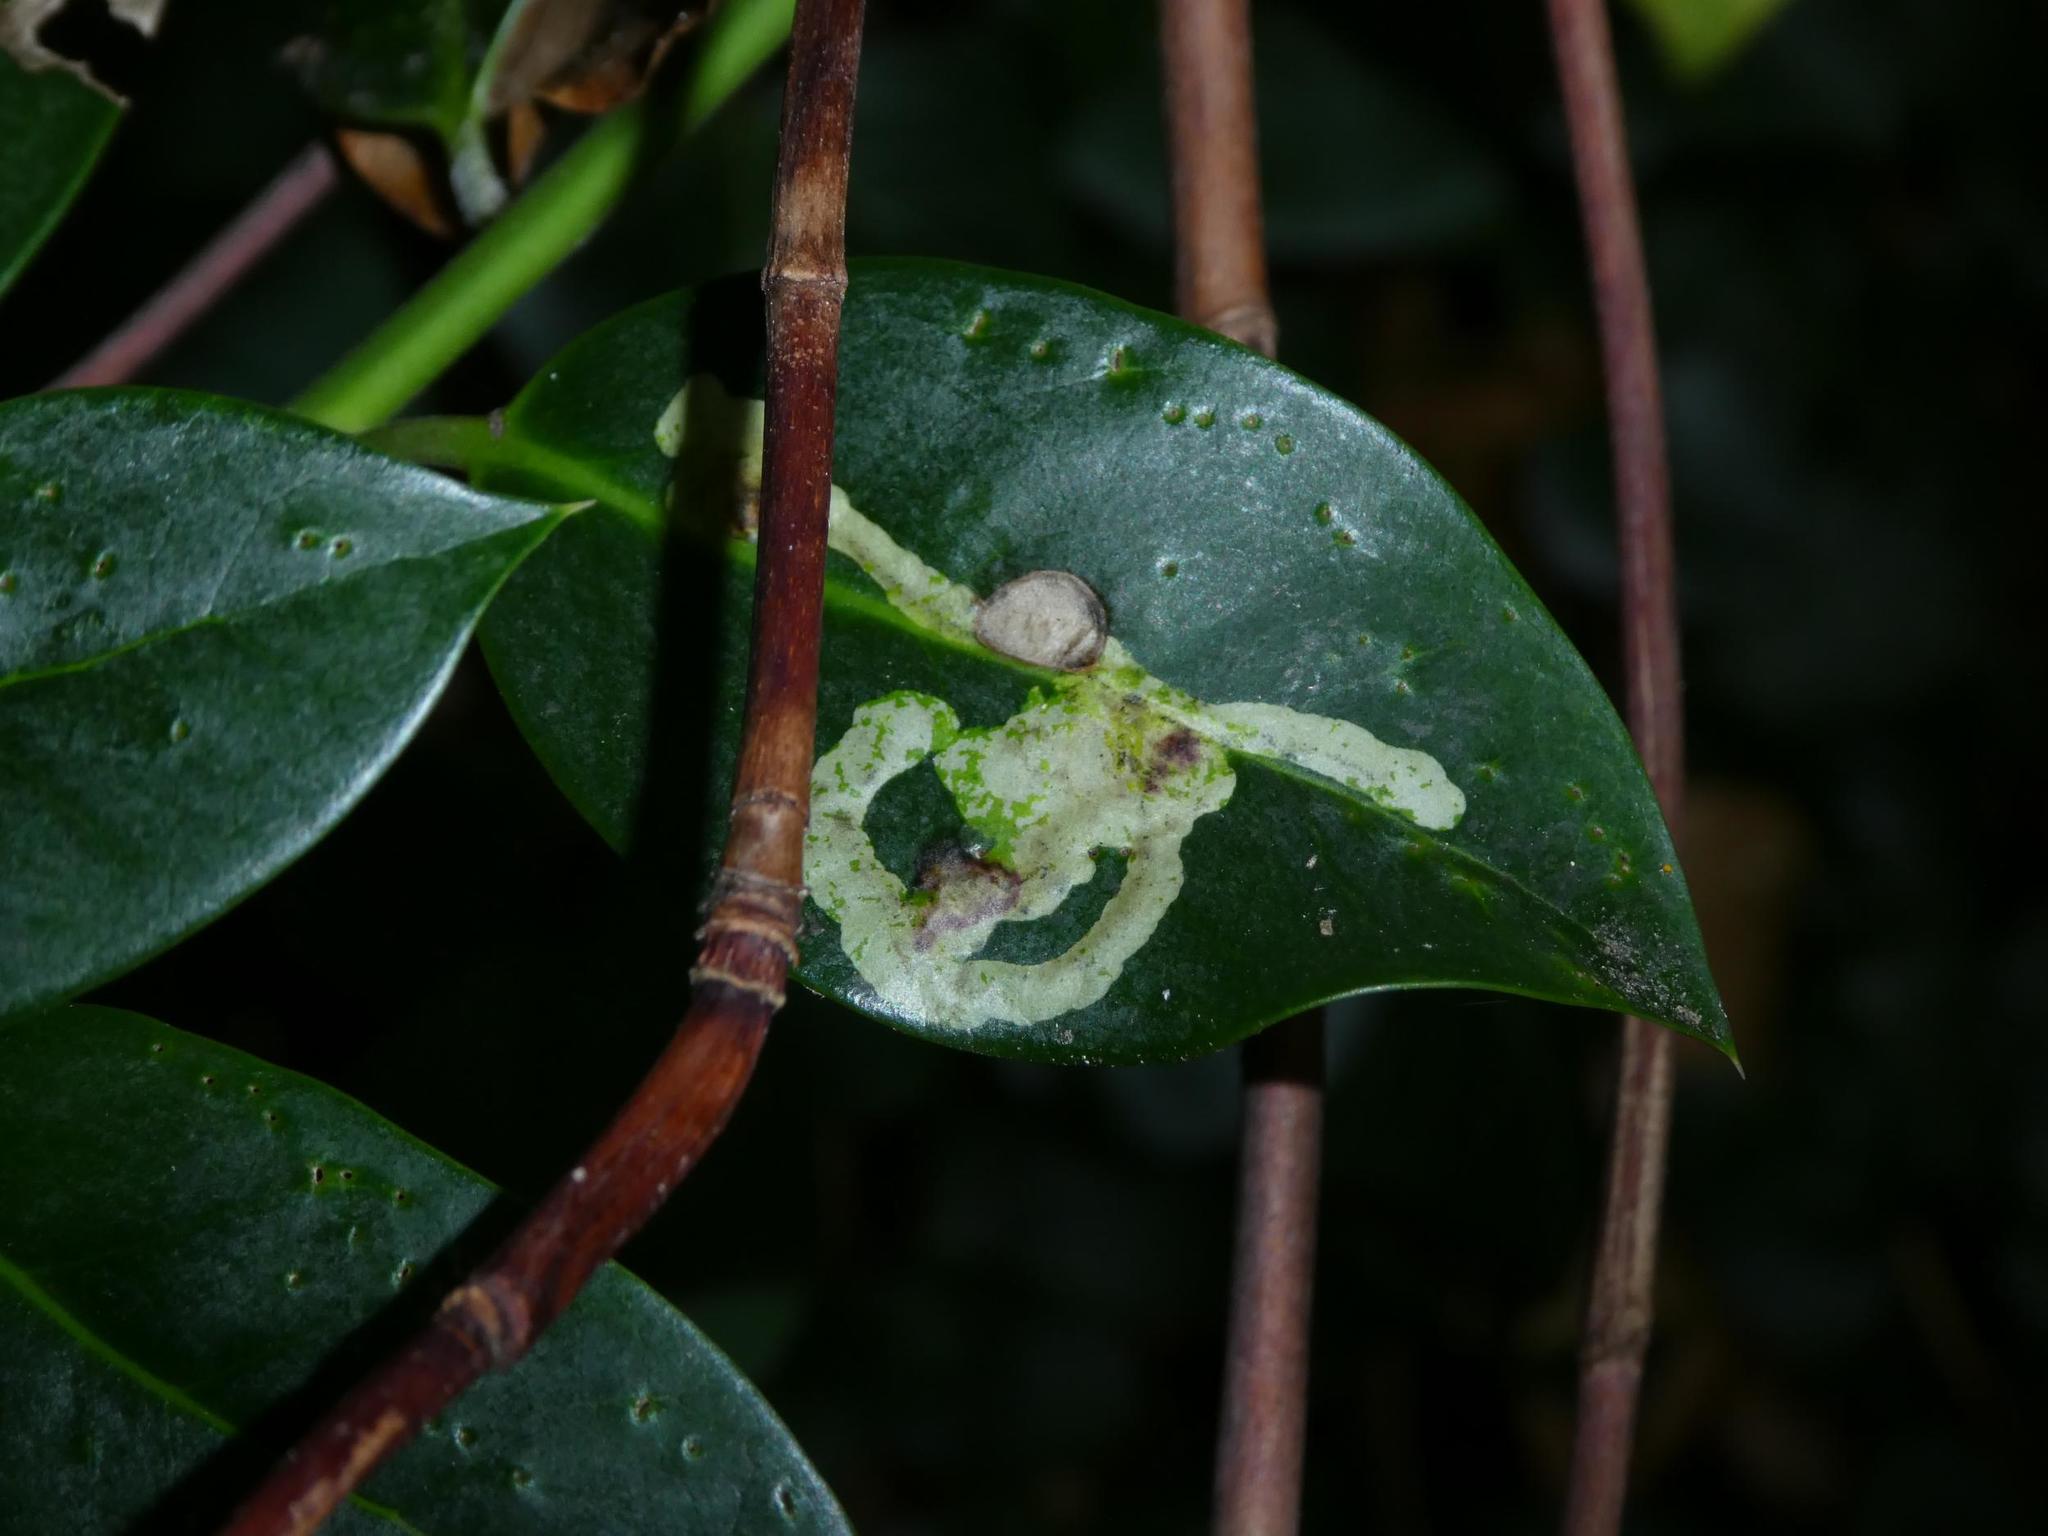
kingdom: Animalia
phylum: Arthropoda
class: Insecta
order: Diptera
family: Agromyzidae
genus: Phytomyza
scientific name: Phytomyza ilicis
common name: Holly leafminer
